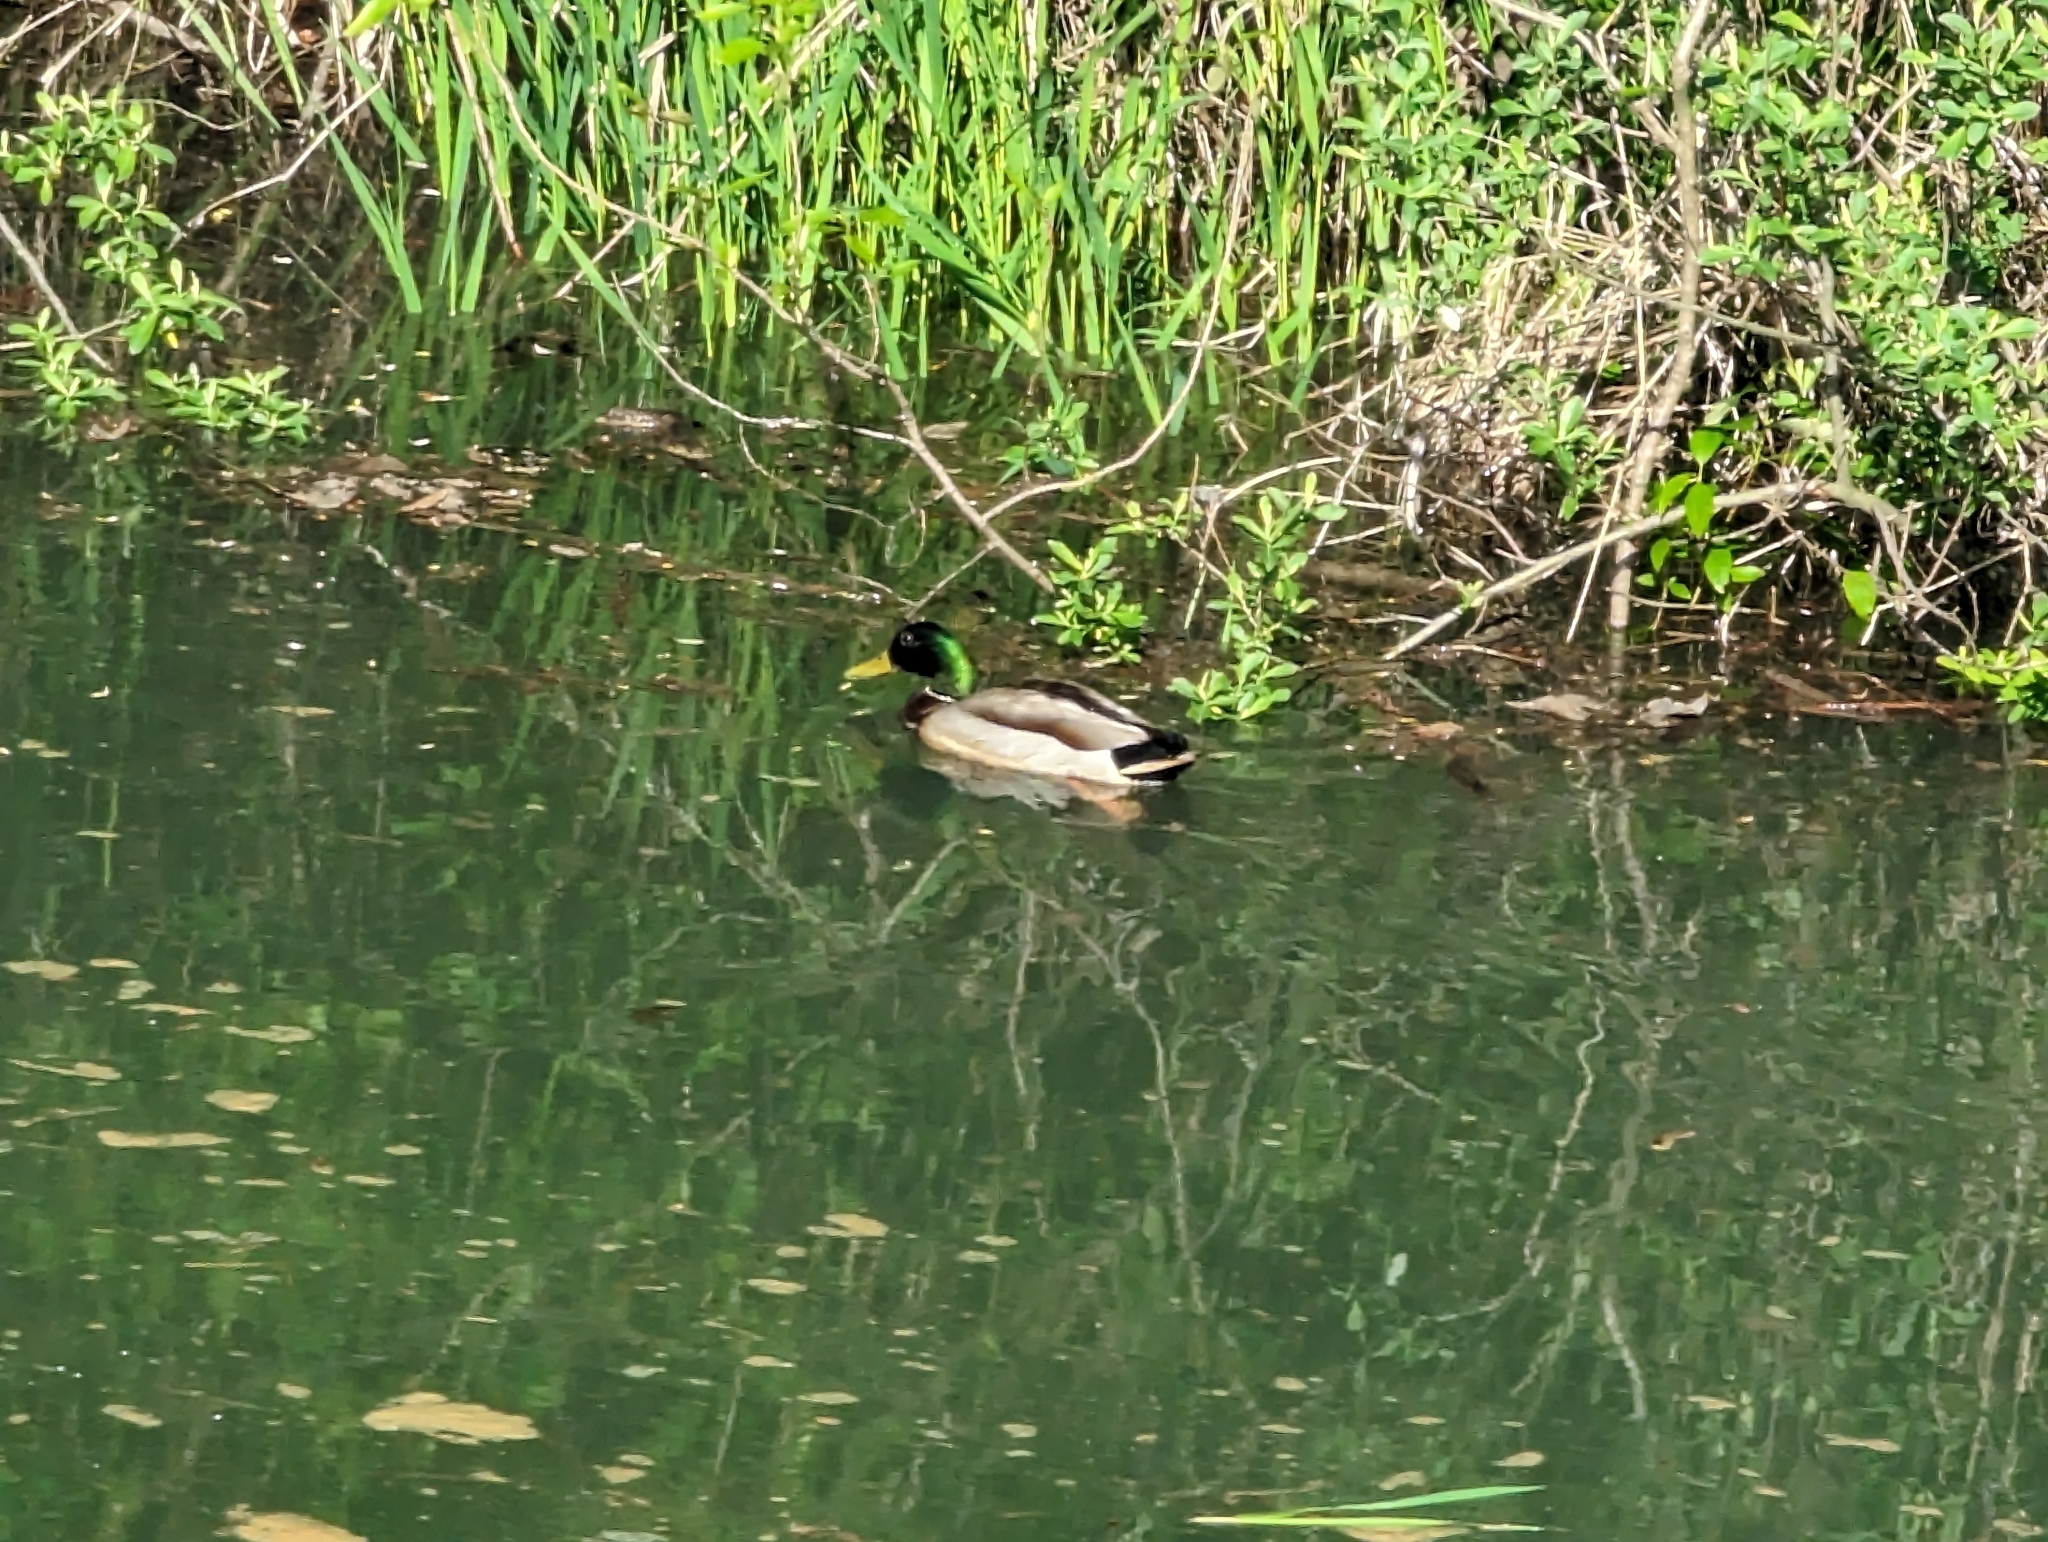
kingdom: Animalia
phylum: Chordata
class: Aves
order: Anseriformes
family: Anatidae
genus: Anas
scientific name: Anas platyrhynchos
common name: Mallard
